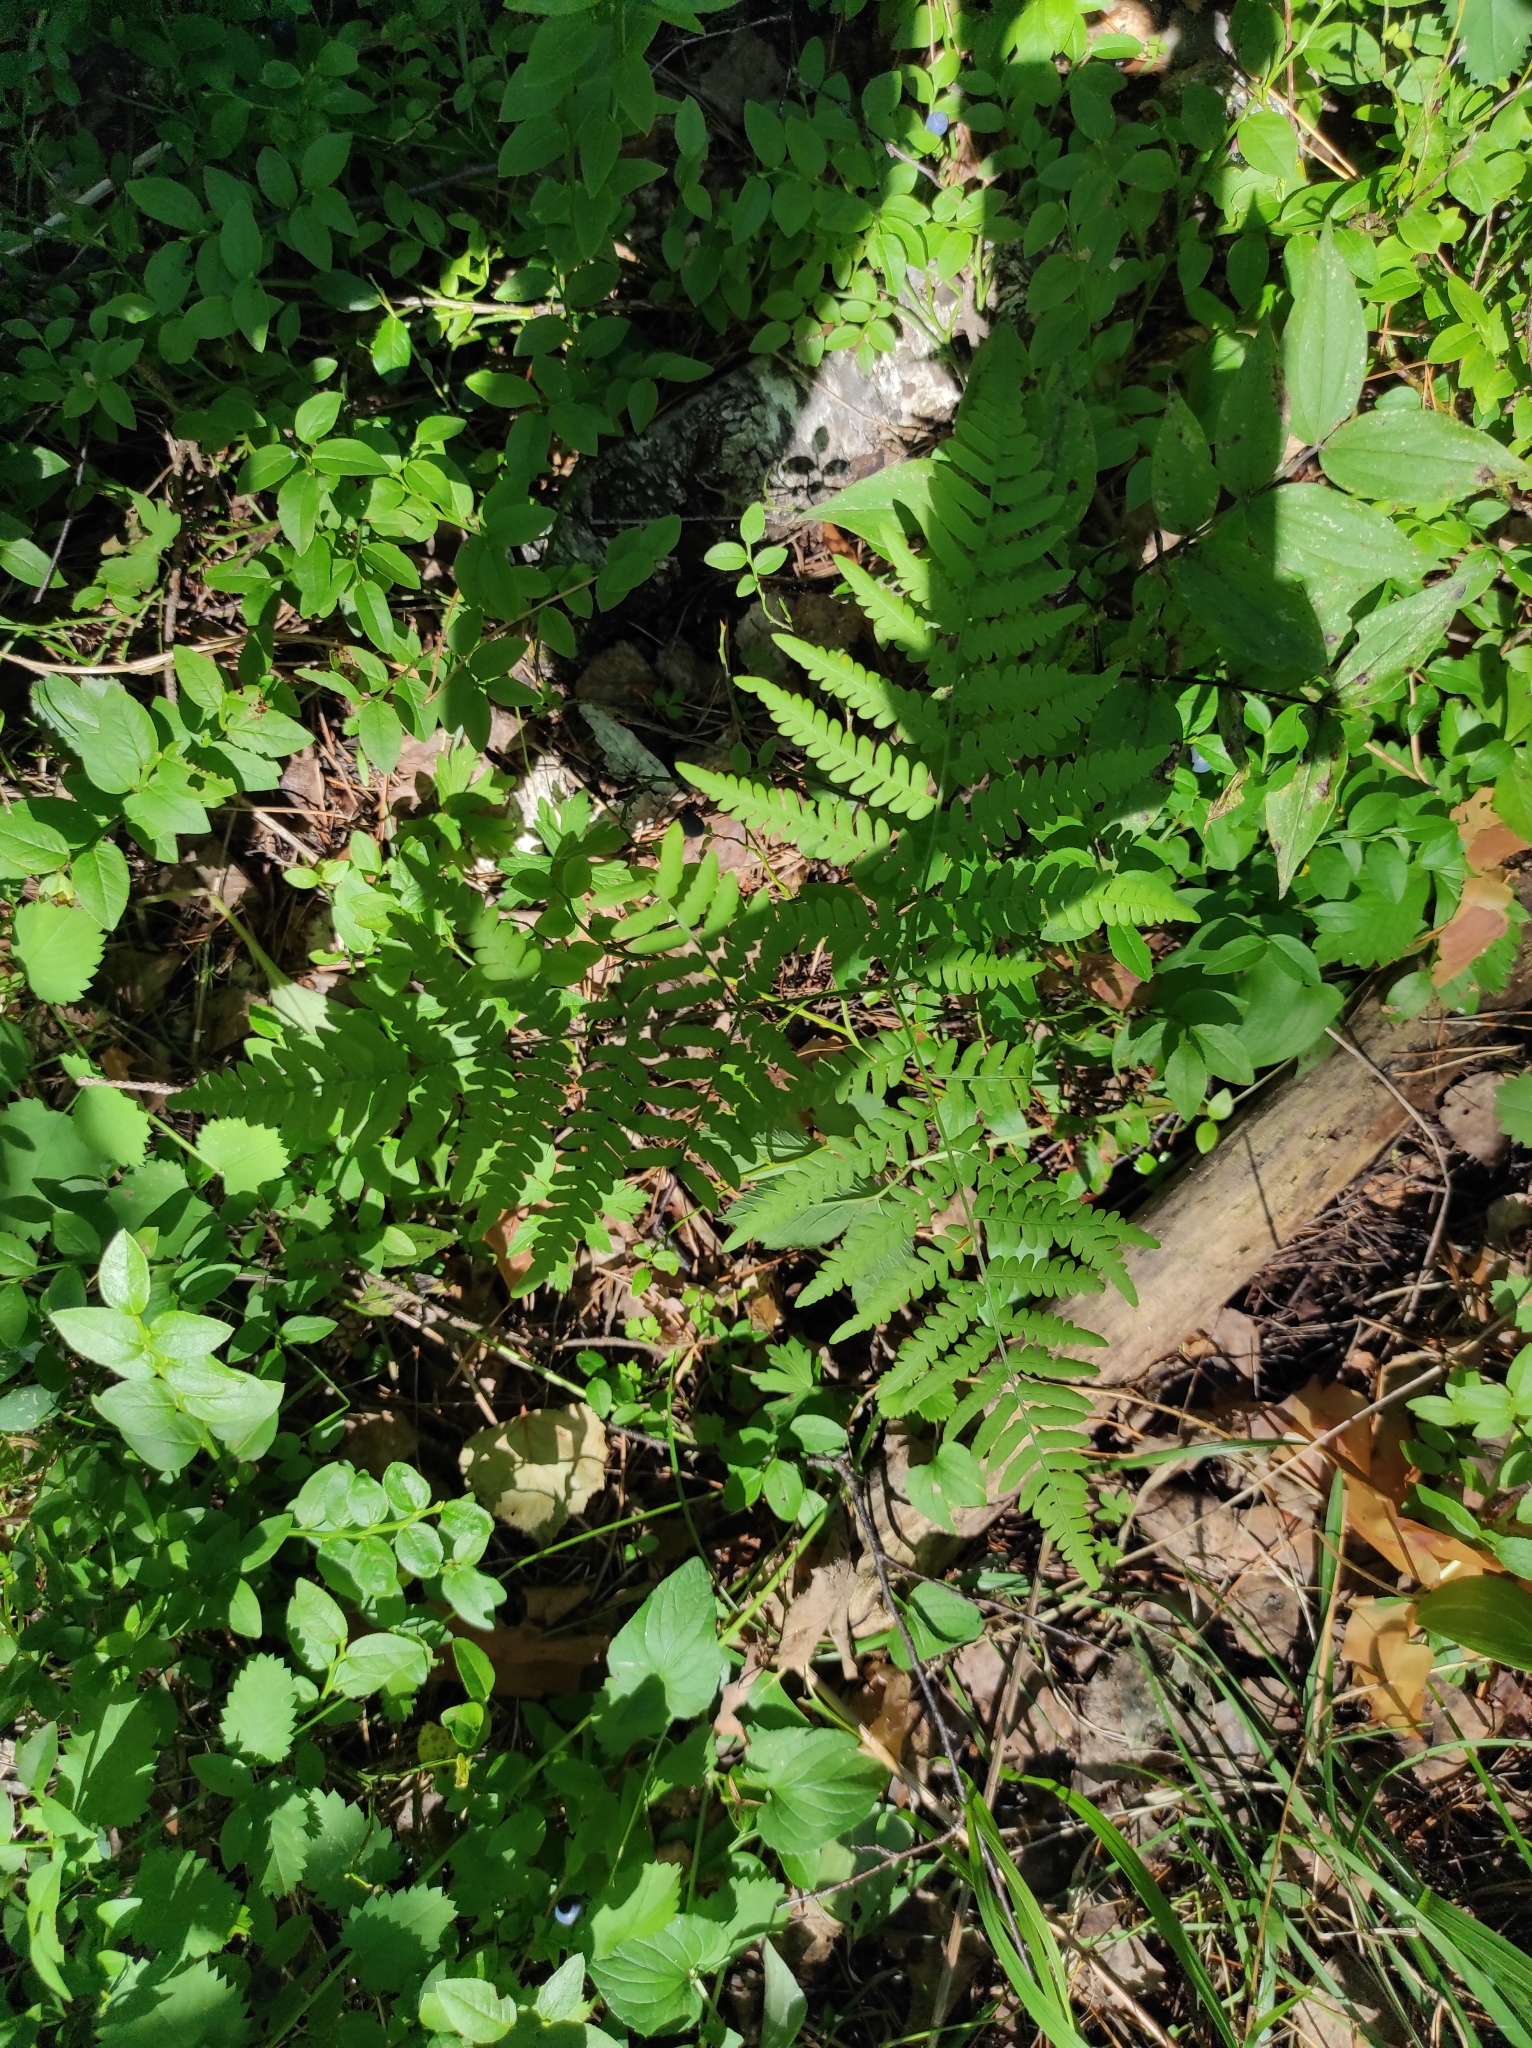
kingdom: Plantae
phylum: Tracheophyta
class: Polypodiopsida
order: Polypodiales
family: Dennstaedtiaceae
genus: Pteridium
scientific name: Pteridium aquilinum
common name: Bracken
